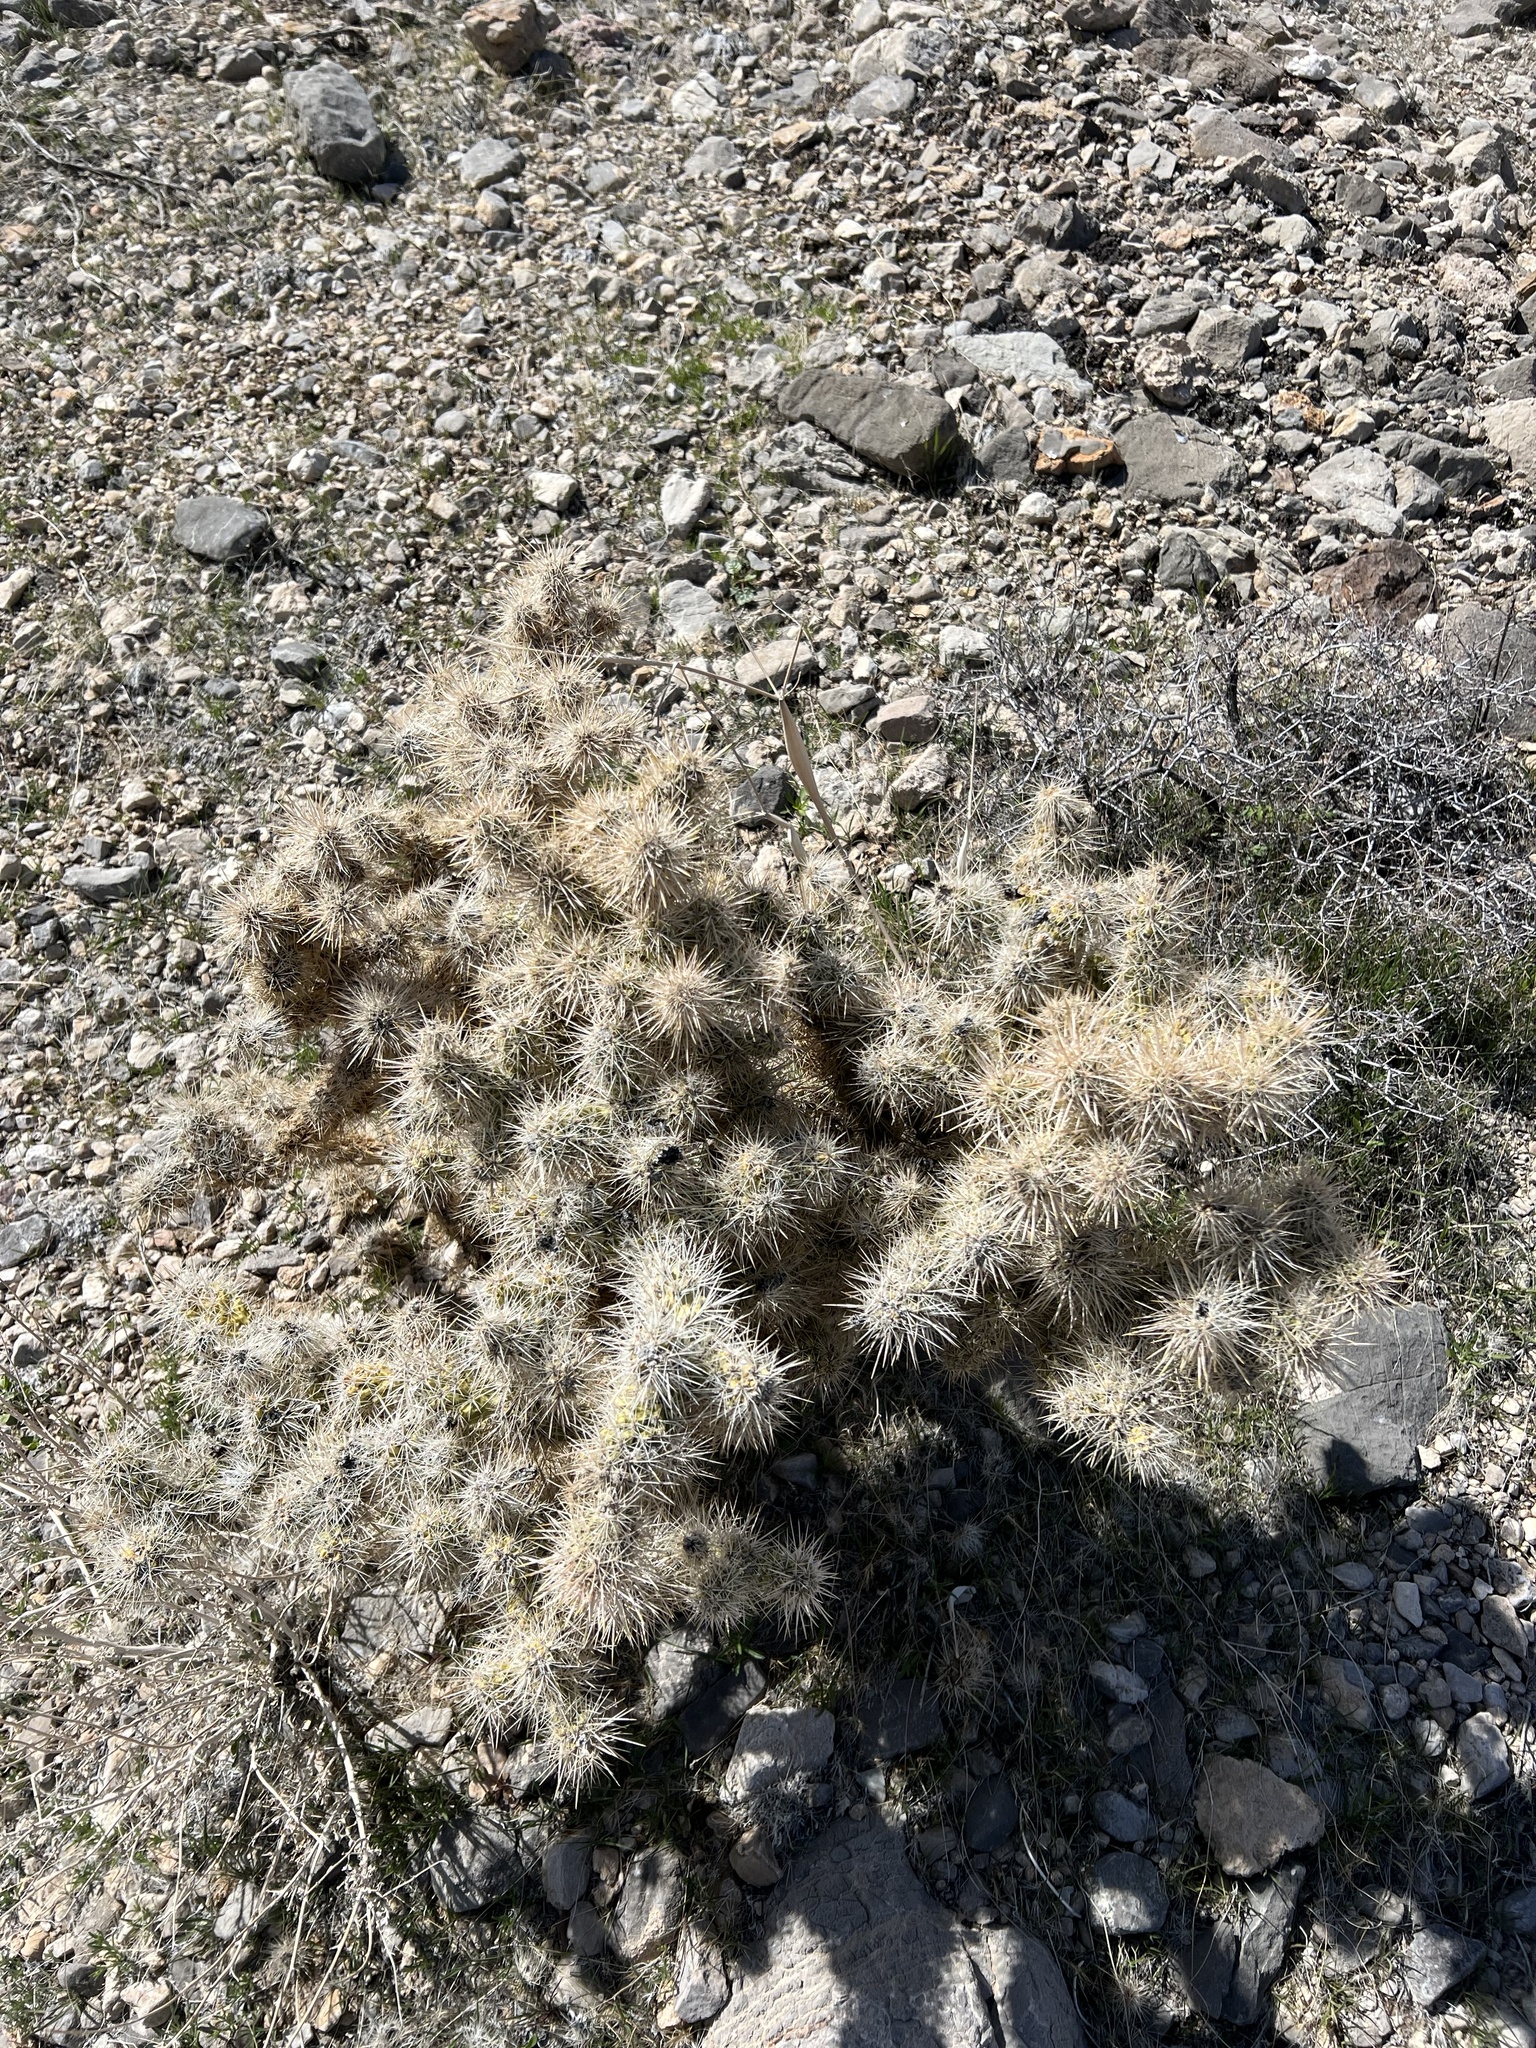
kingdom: Plantae
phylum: Tracheophyta
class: Magnoliopsida
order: Caryophyllales
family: Cactaceae
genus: Cylindropuntia
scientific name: Cylindropuntia echinocarpa
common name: Ground cholla
